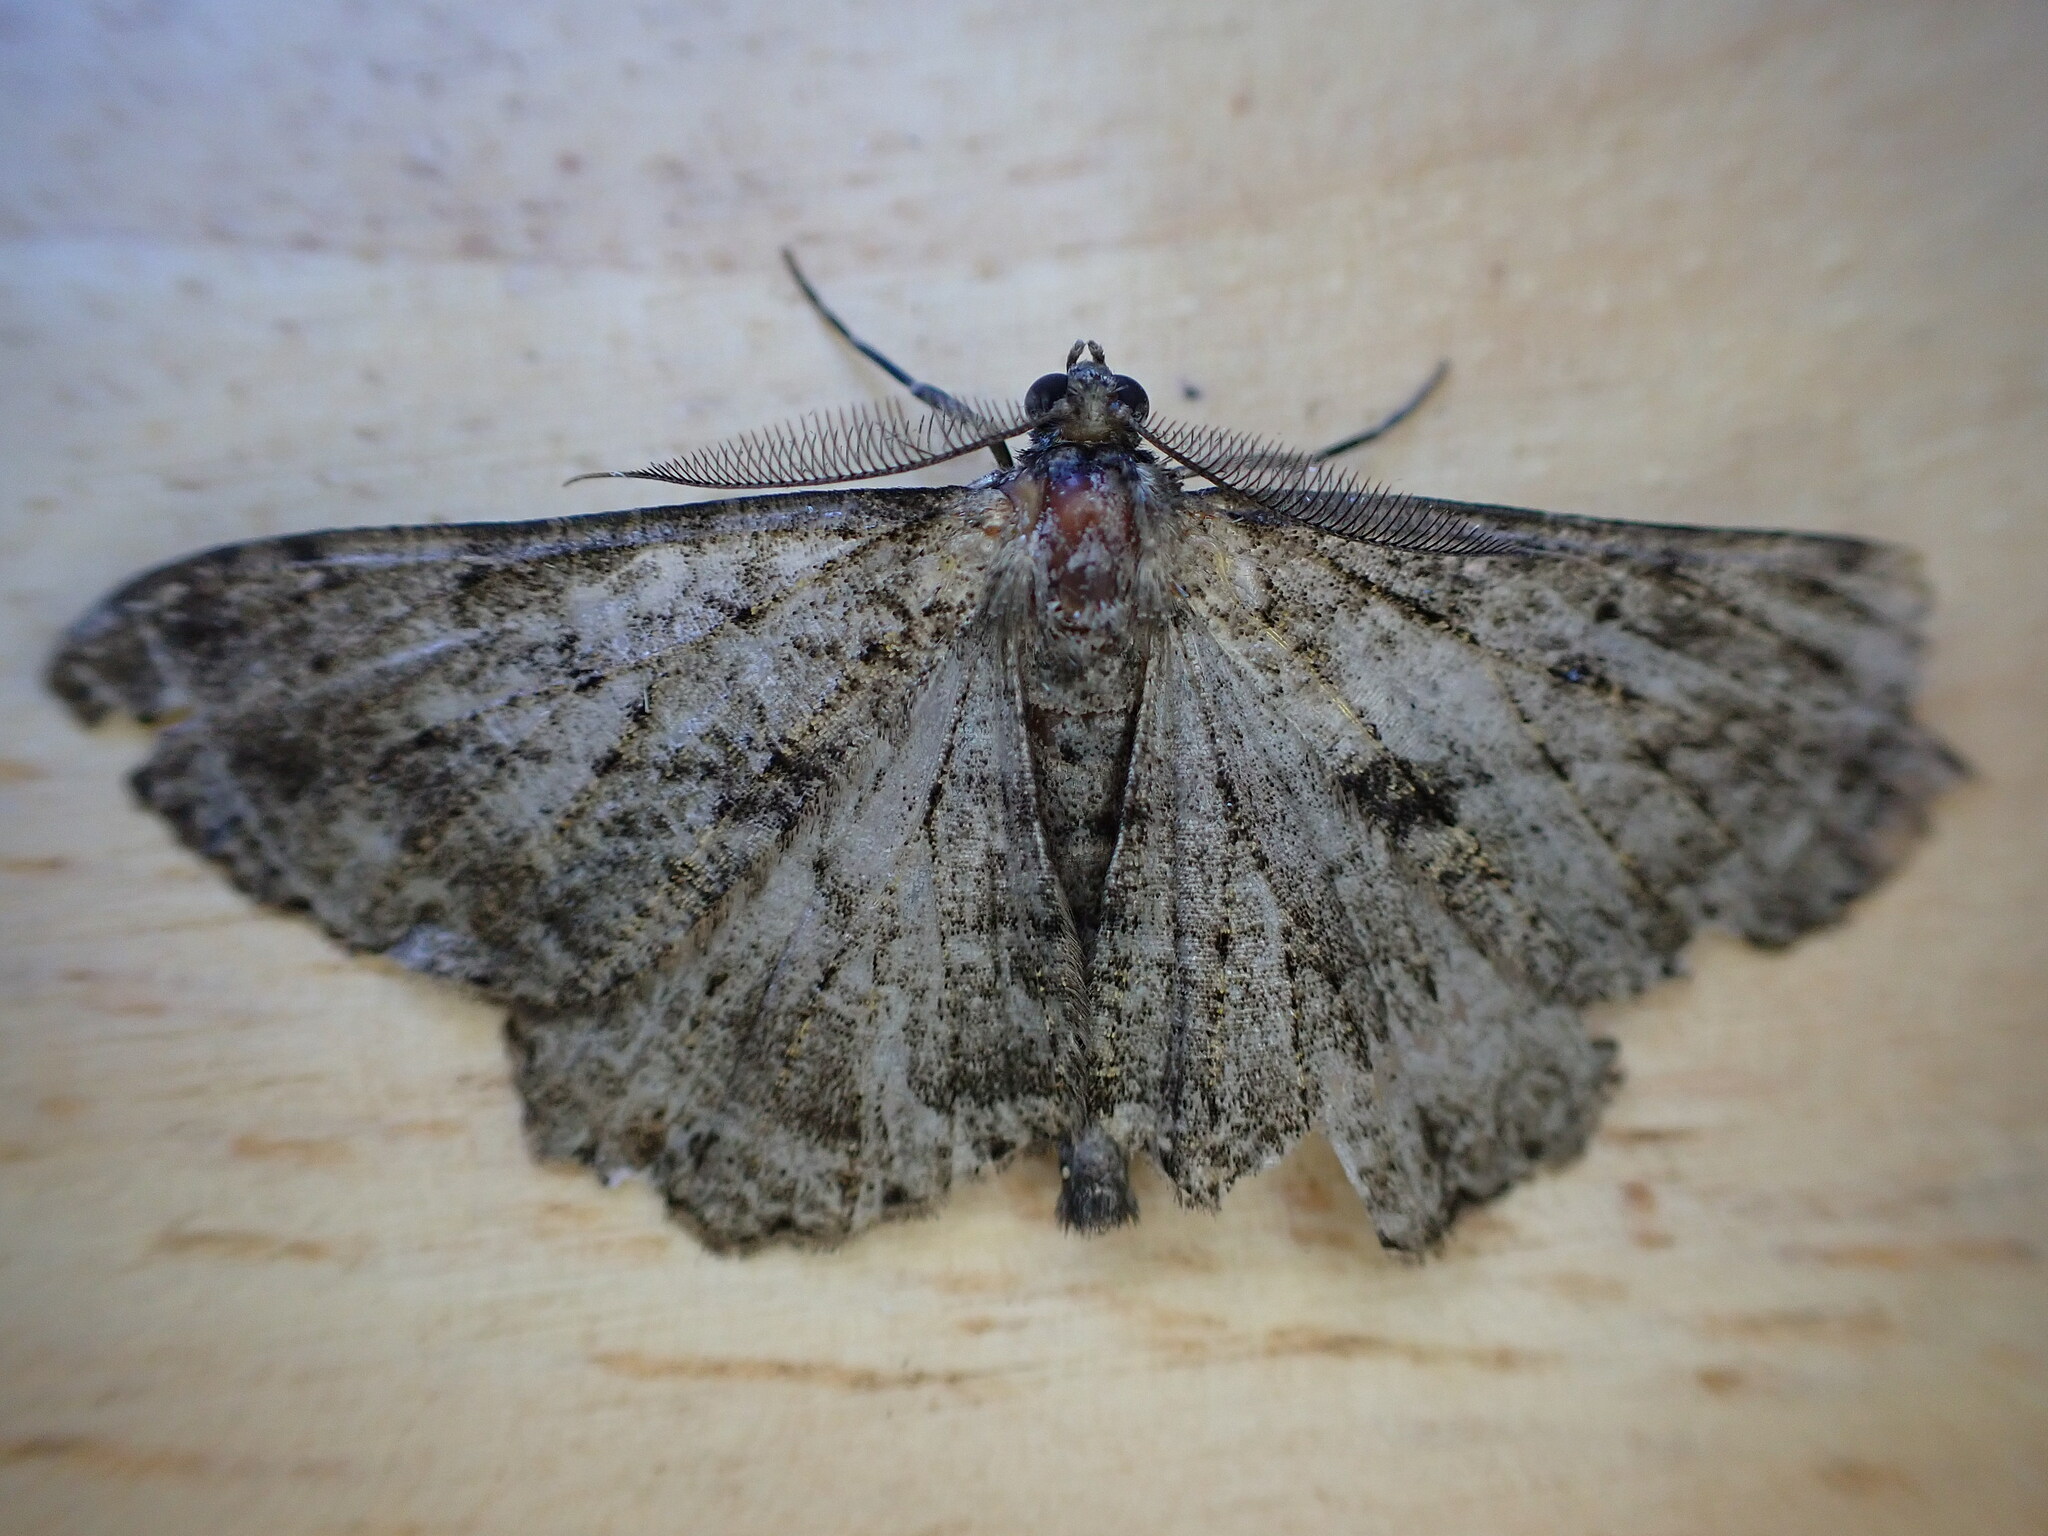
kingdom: Animalia
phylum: Arthropoda
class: Insecta
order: Lepidoptera
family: Geometridae
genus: Peribatodes
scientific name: Peribatodes rhomboidaria
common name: Willow beauty
